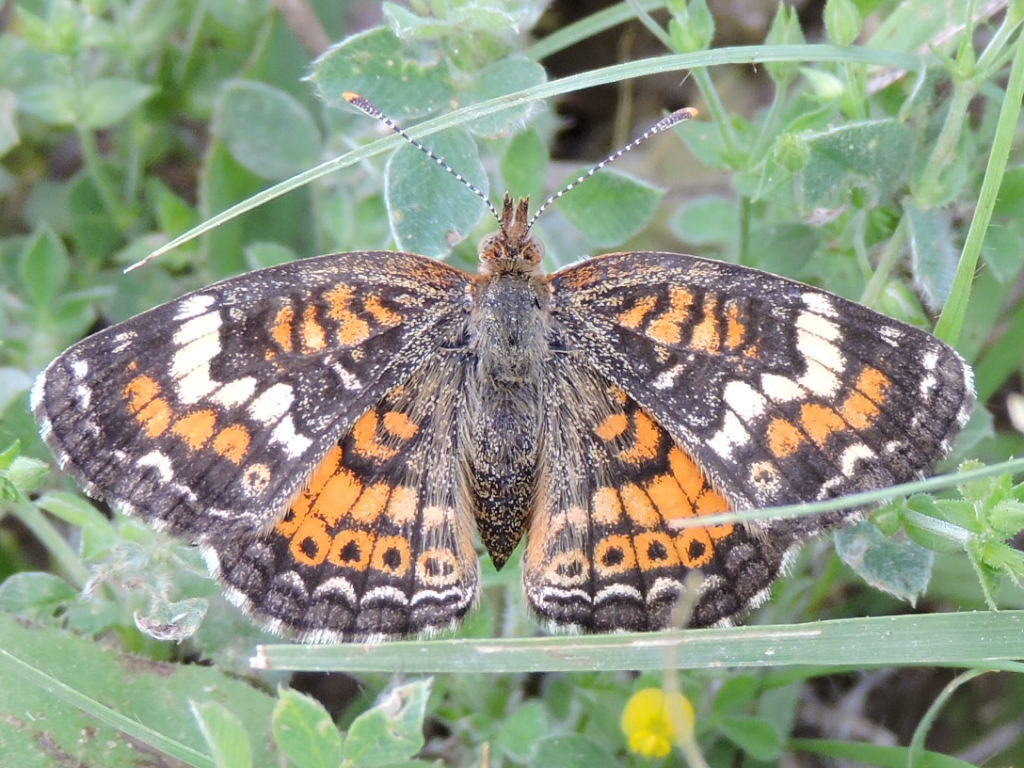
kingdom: Animalia
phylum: Arthropoda
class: Insecta
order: Lepidoptera
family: Nymphalidae
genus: Phyciodes
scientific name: Phyciodes phaon
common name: Phaon crescent
